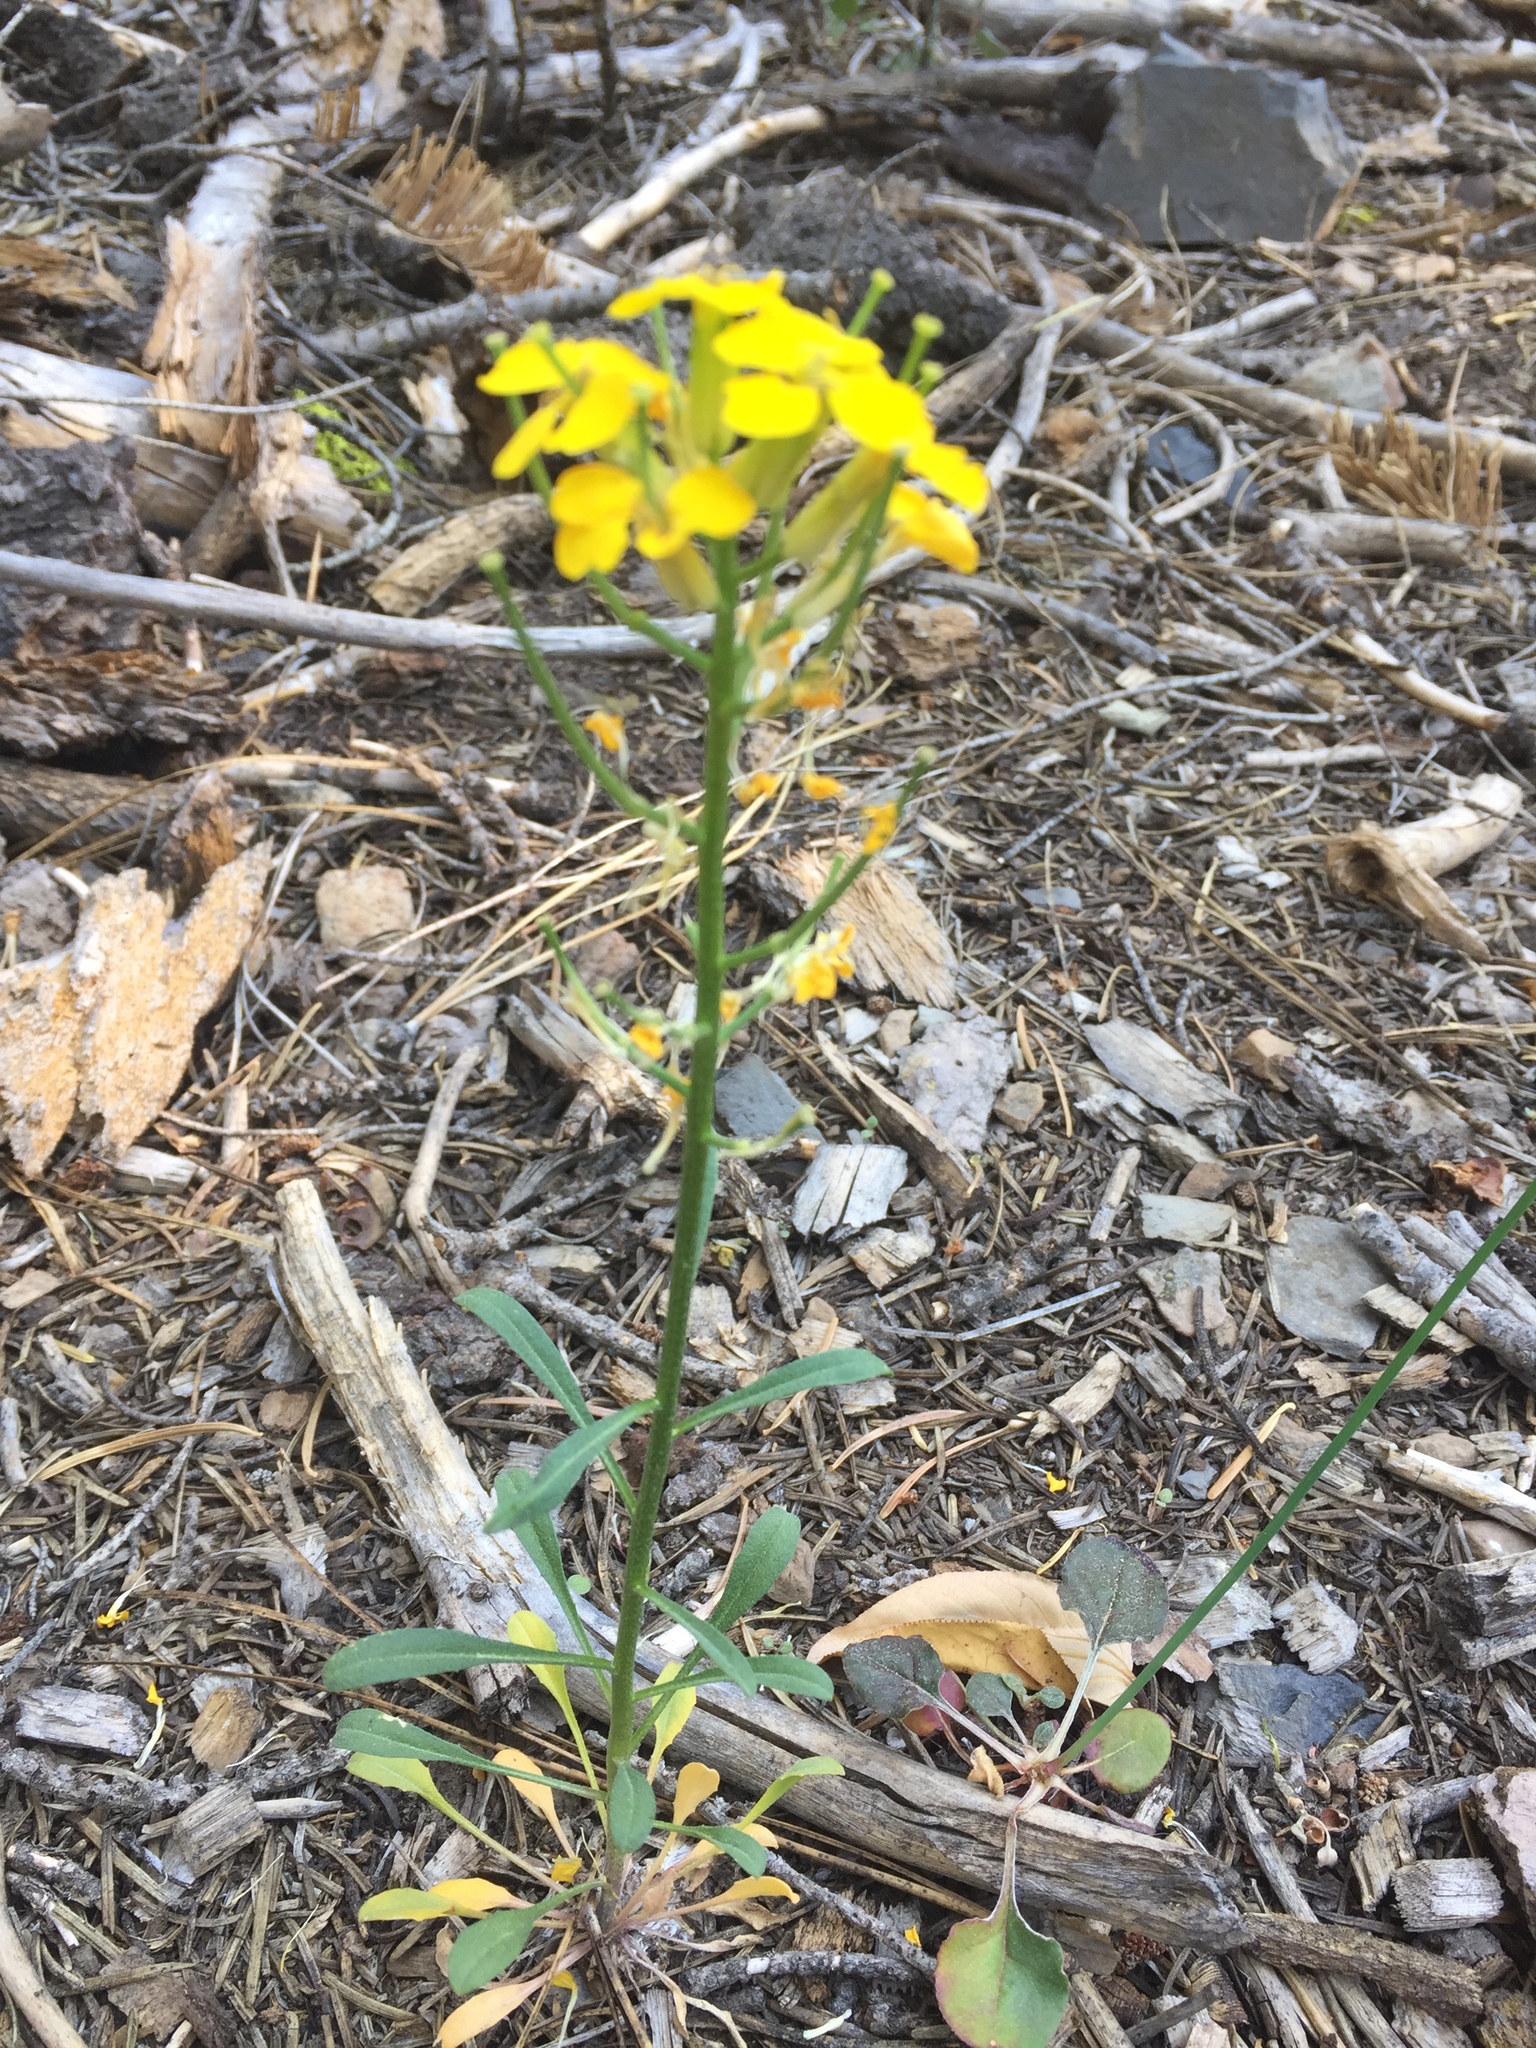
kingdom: Plantae
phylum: Tracheophyta
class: Magnoliopsida
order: Brassicales
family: Brassicaceae
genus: Erysimum
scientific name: Erysimum capitatum
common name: Western wallflower
